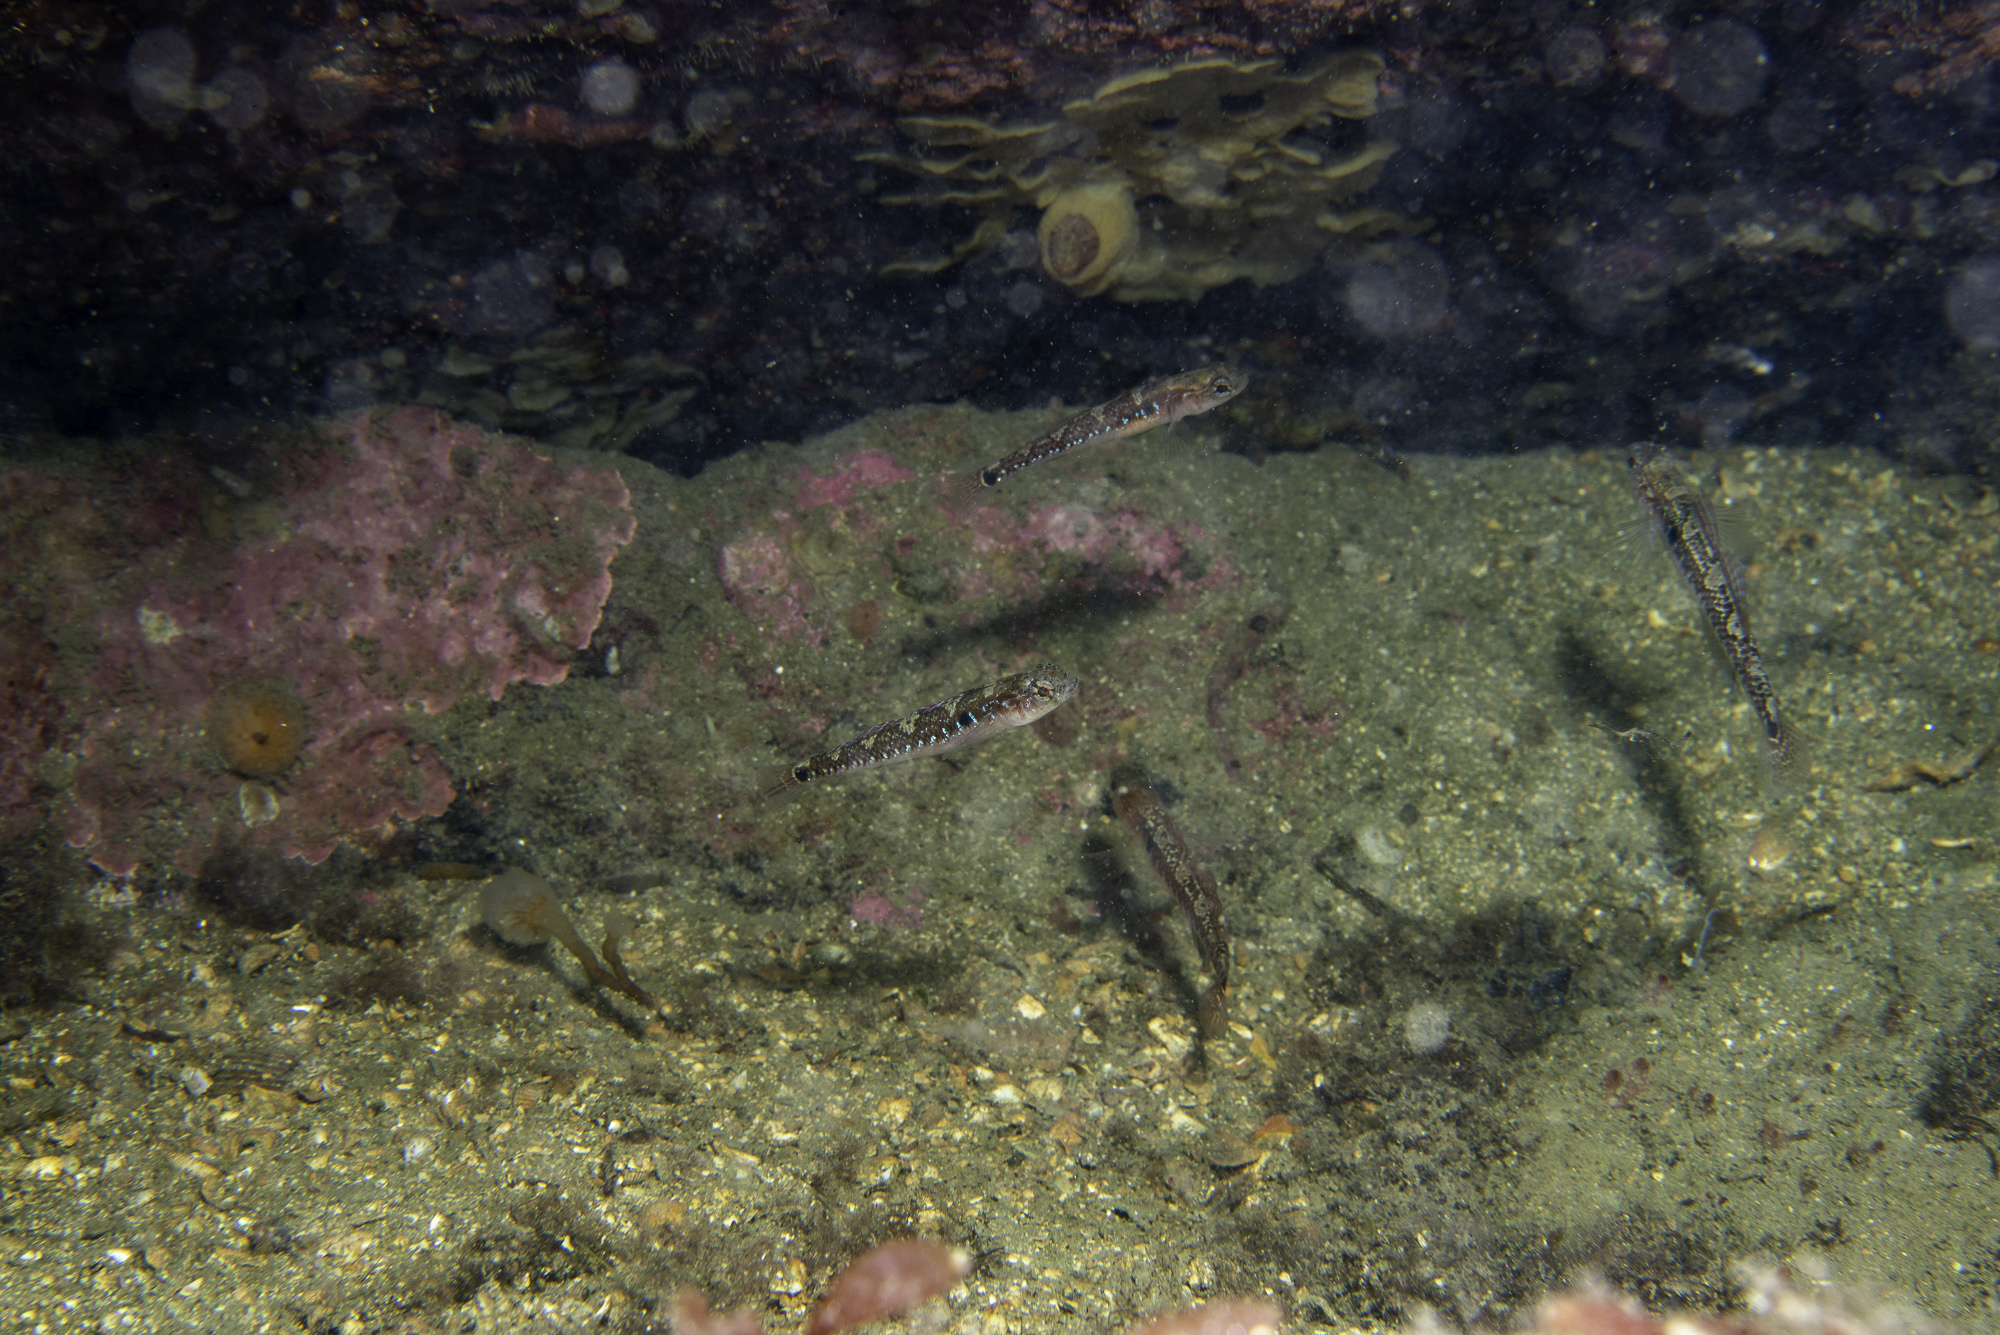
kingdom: Animalia
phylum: Chordata
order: Perciformes
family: Gobiidae
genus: Gobiusculus
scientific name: Gobiusculus flavescens
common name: Two-spotted goby
